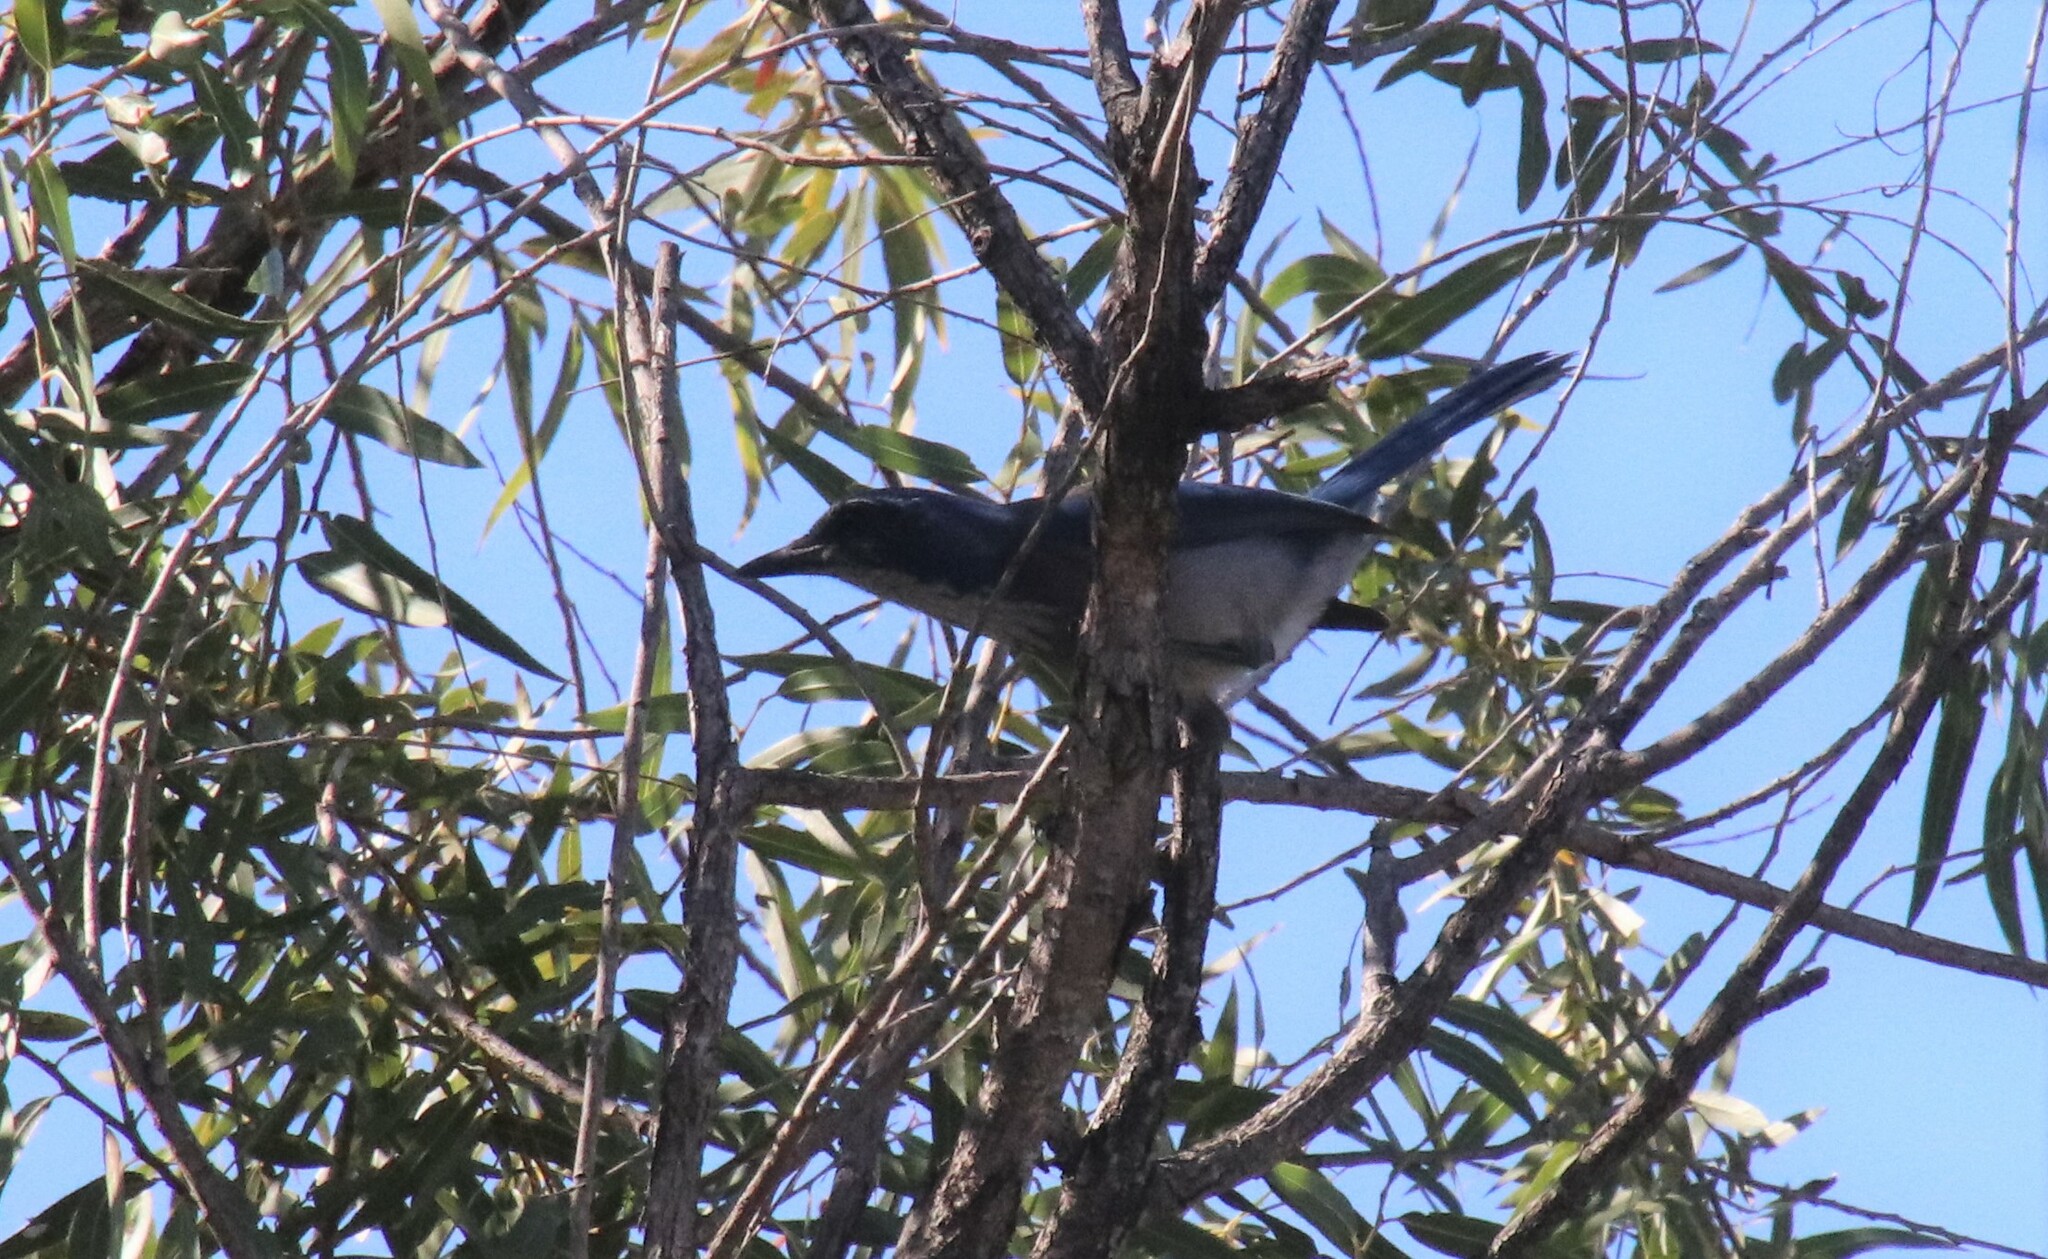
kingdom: Animalia
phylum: Chordata
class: Aves
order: Passeriformes
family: Corvidae
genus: Aphelocoma
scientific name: Aphelocoma californica
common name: California scrub-jay
